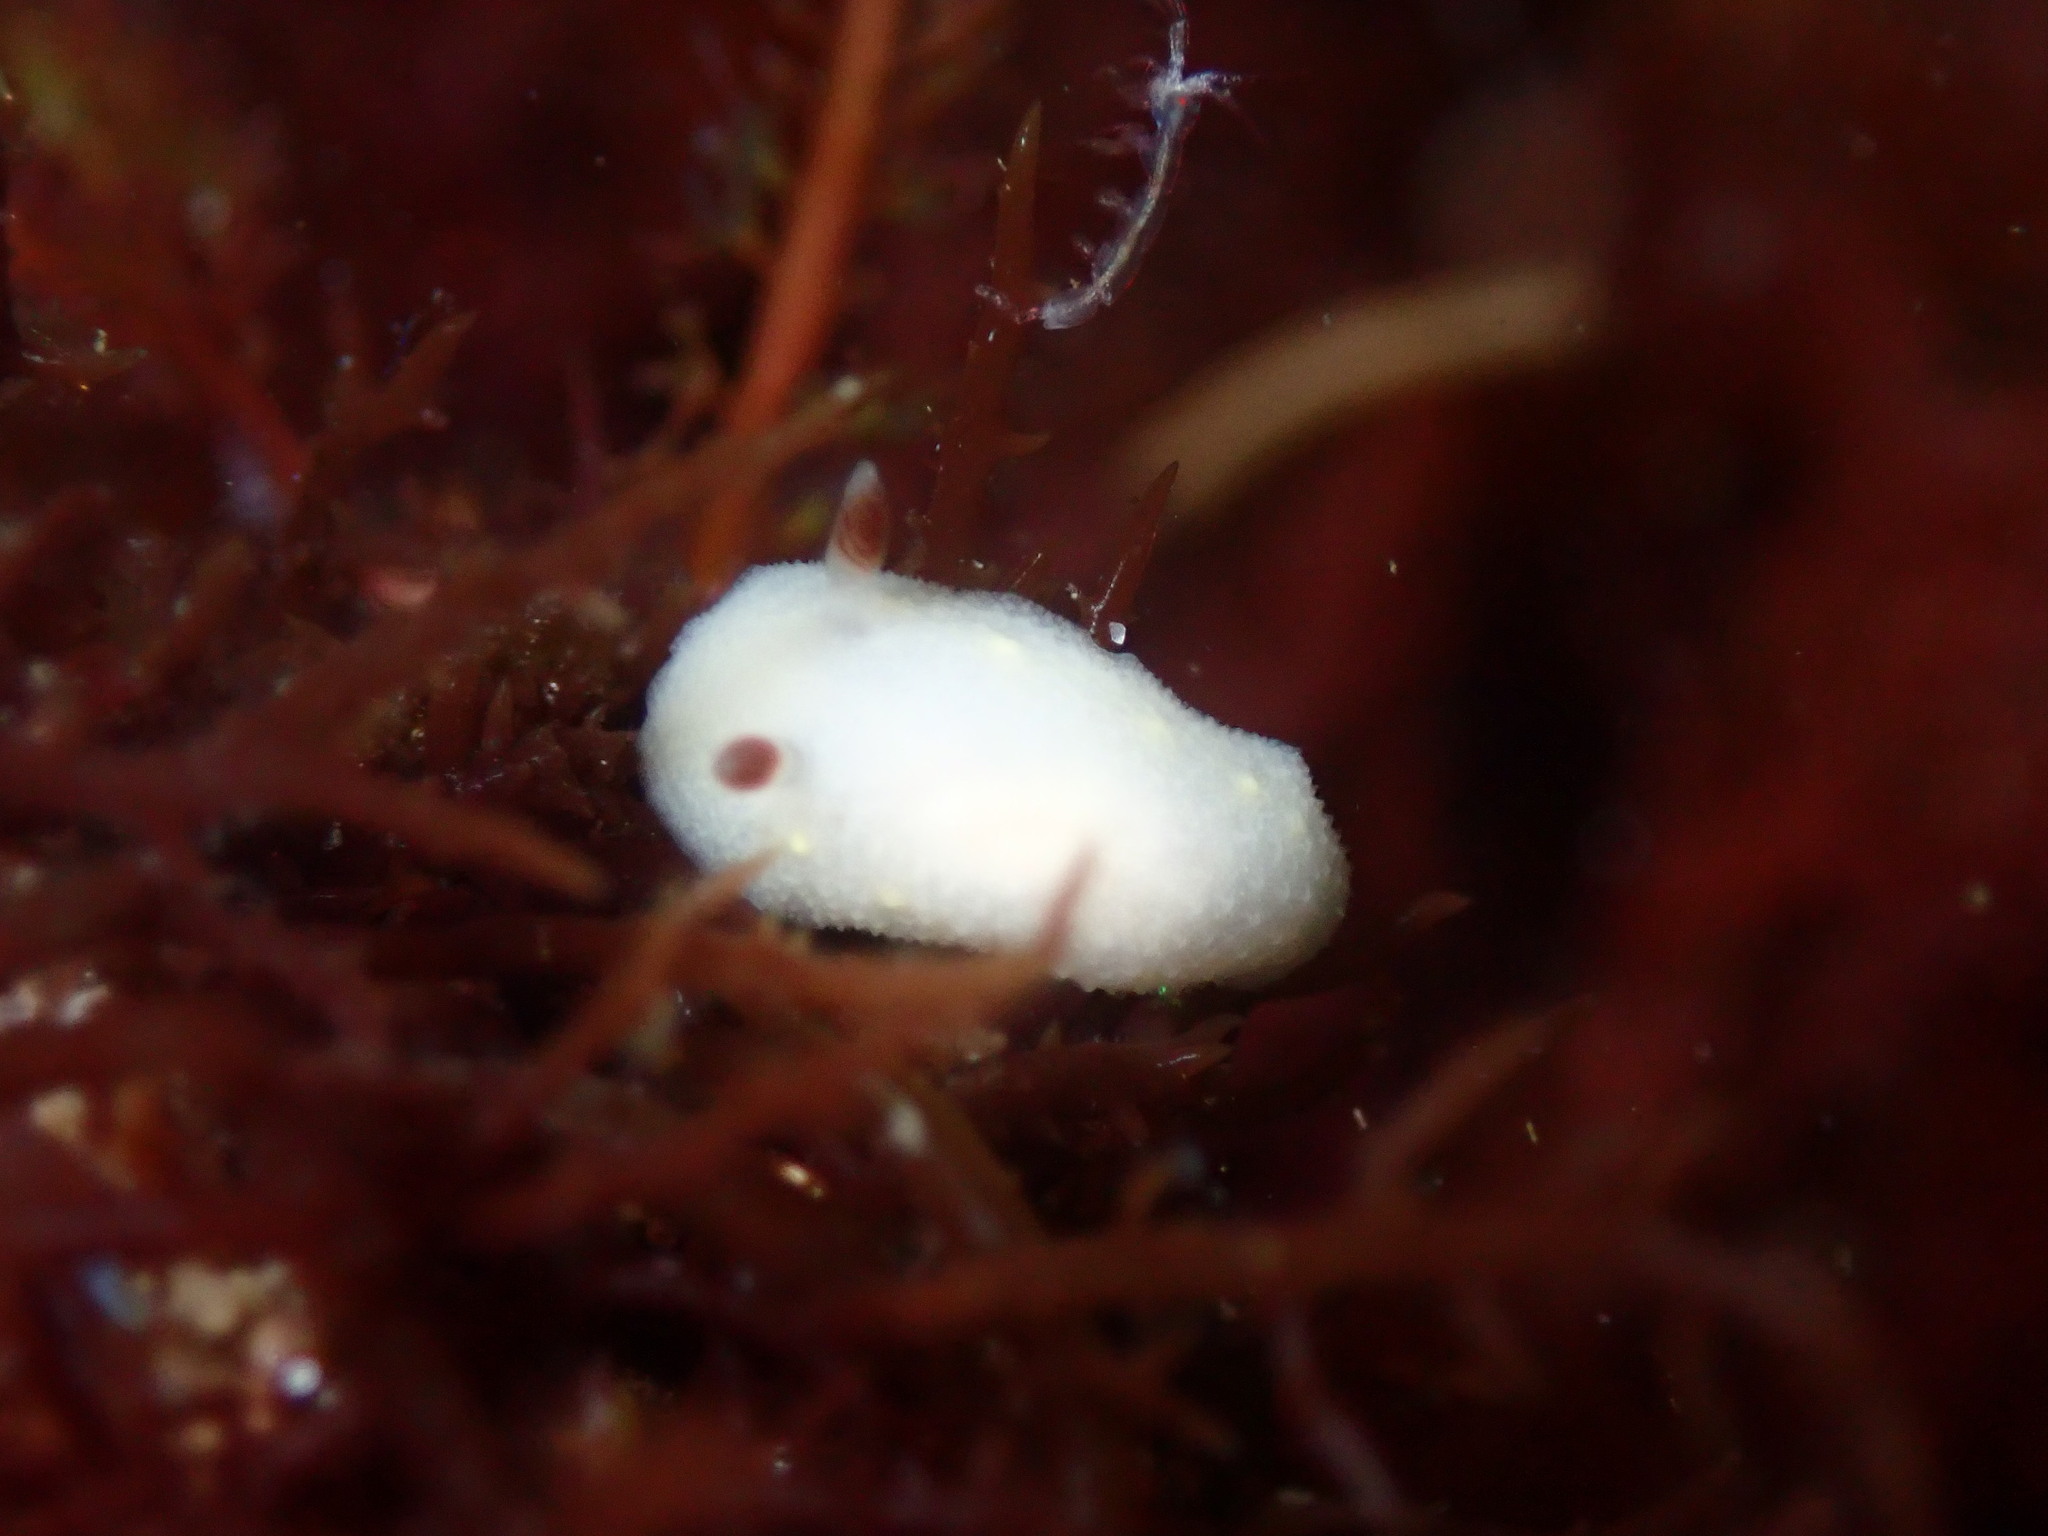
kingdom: Animalia
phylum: Mollusca
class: Gastropoda
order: Nudibranchia
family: Cadlinidae
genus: Cadlina
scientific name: Cadlina flavomaculata
